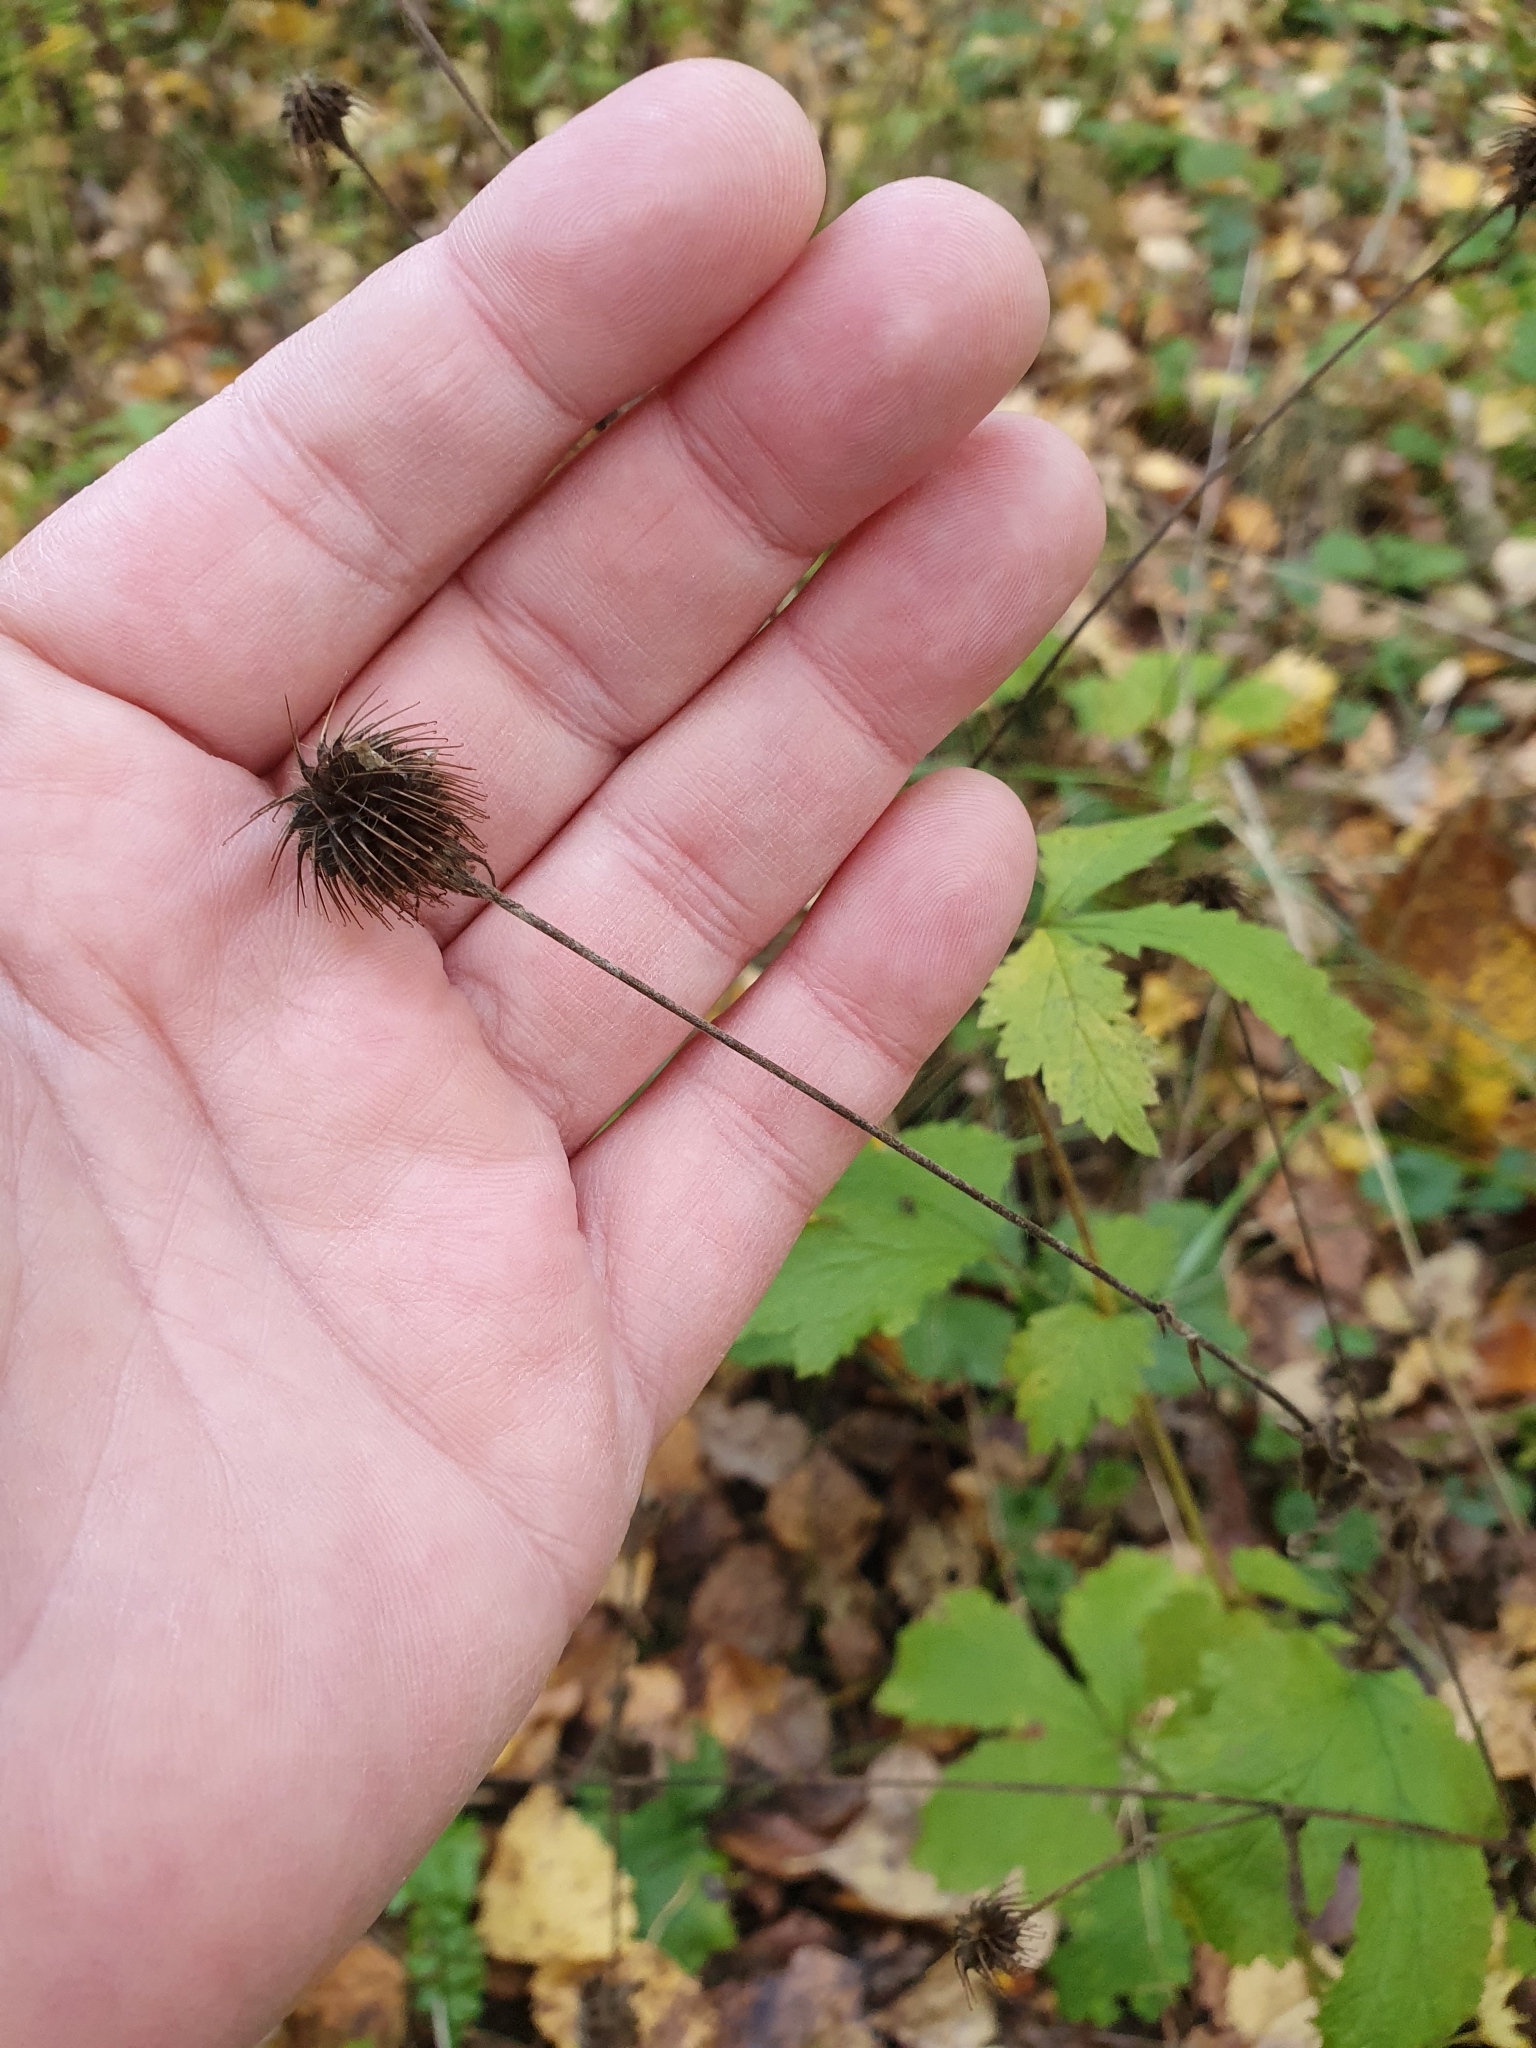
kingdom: Plantae
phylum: Tracheophyta
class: Magnoliopsida
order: Rosales
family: Rosaceae
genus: Geum
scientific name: Geum urbanum
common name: Wood avens
